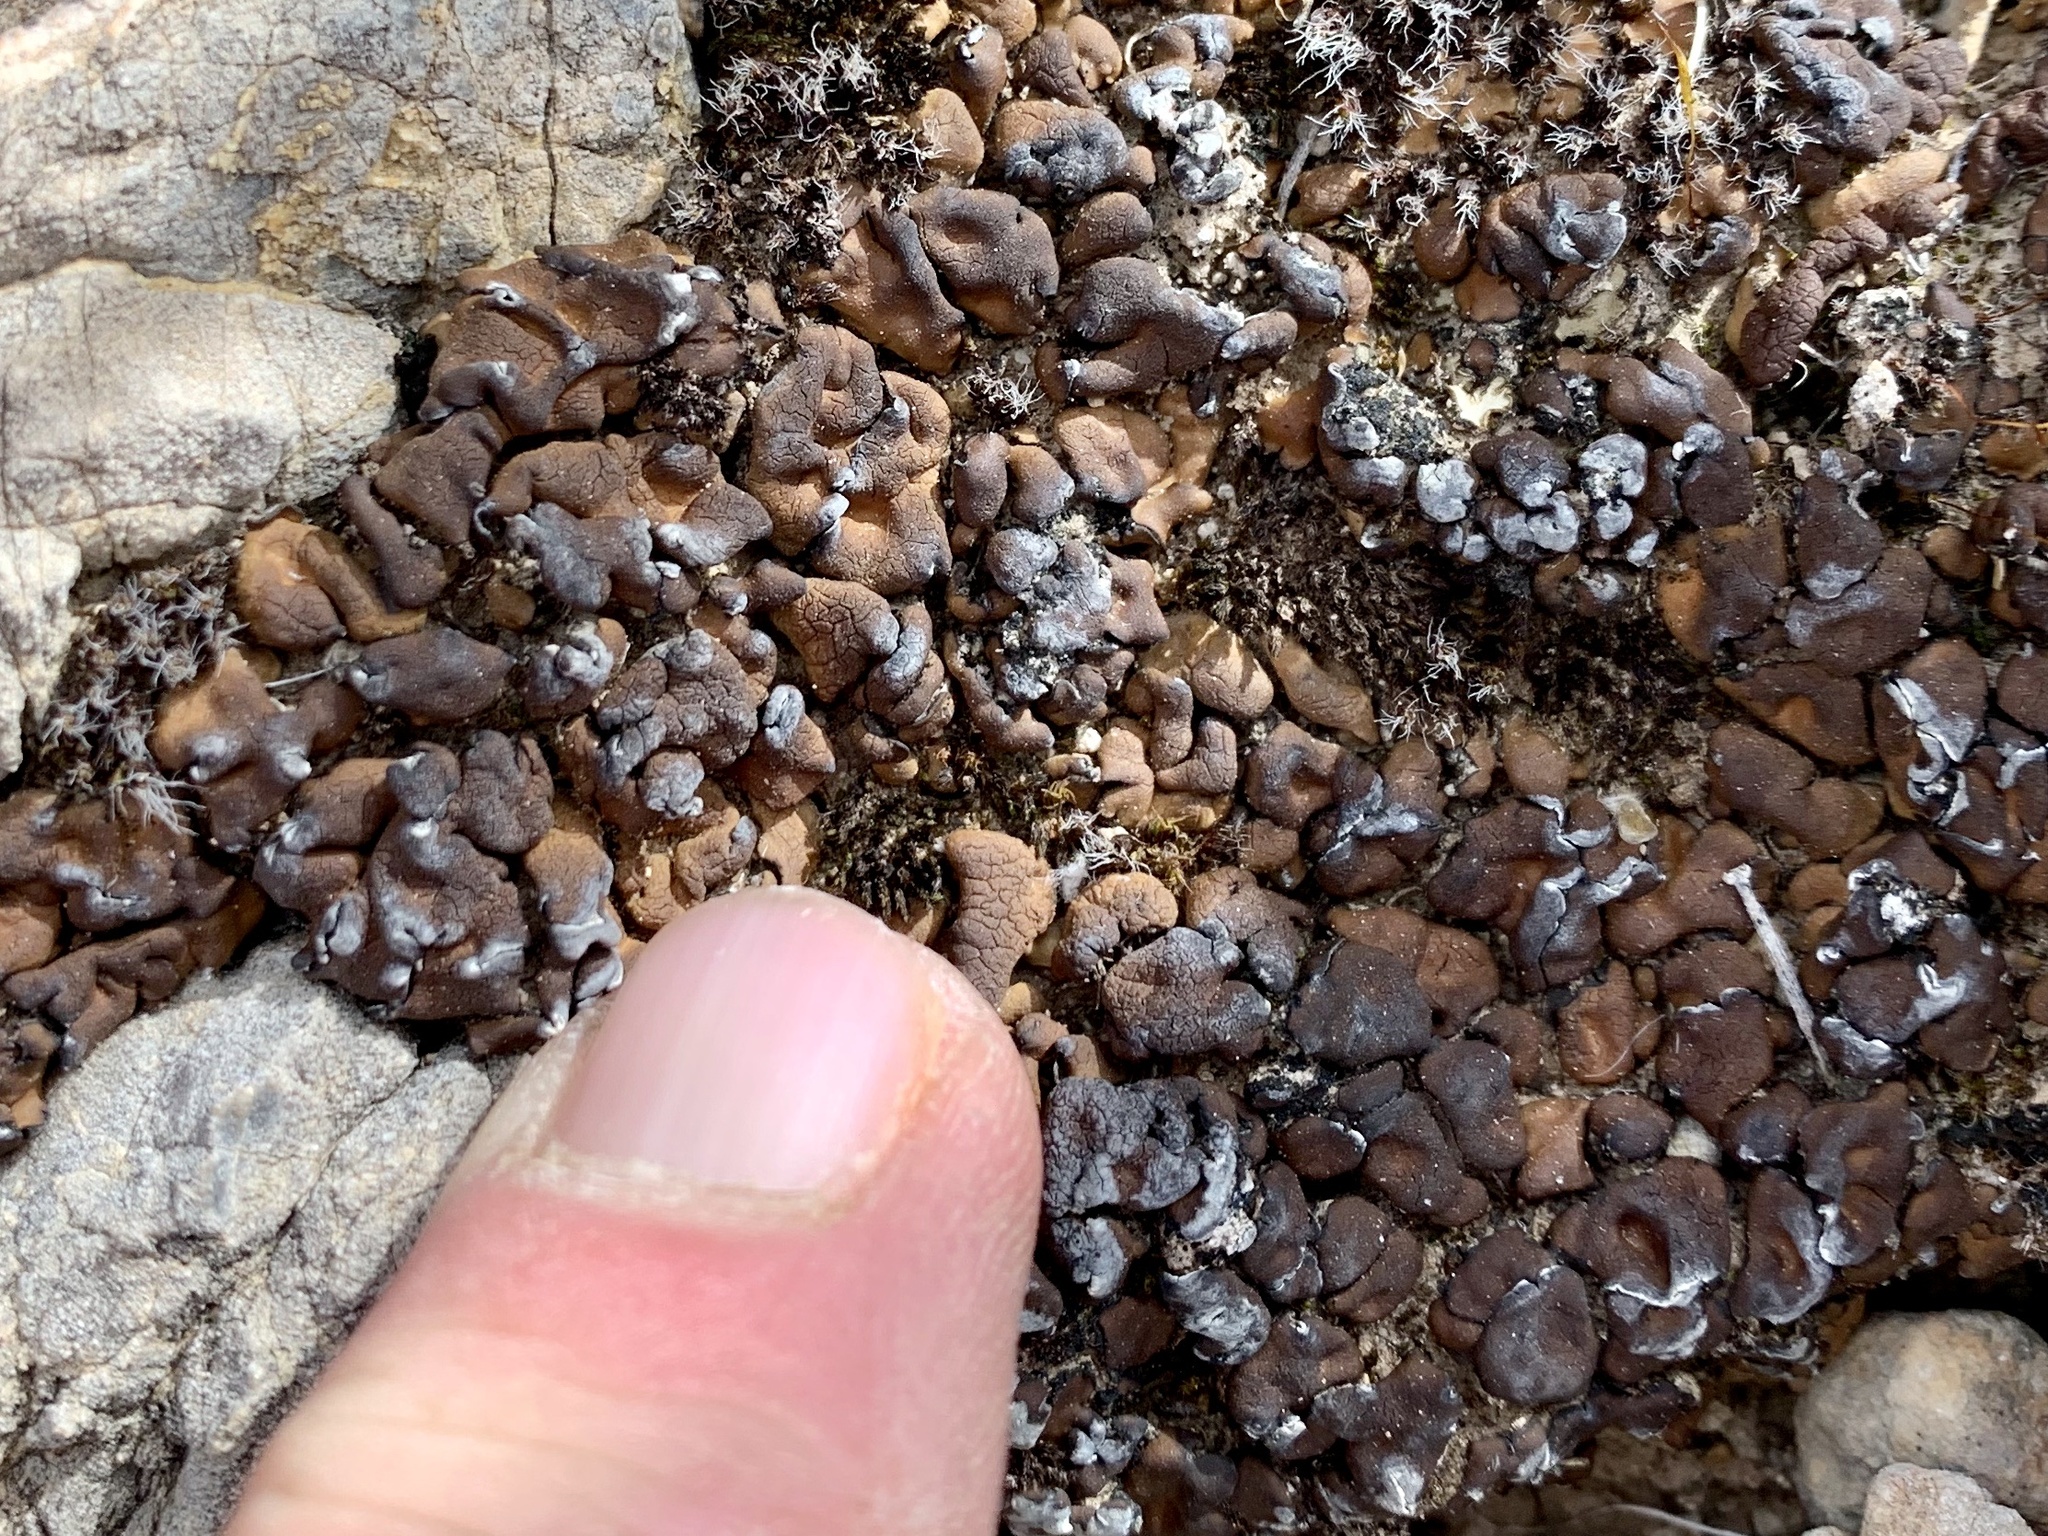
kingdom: Fungi
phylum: Ascomycota
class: Eurotiomycetes
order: Verrucariales
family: Verrucariaceae
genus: Clavascidium
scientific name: Clavascidium lacinulatum
